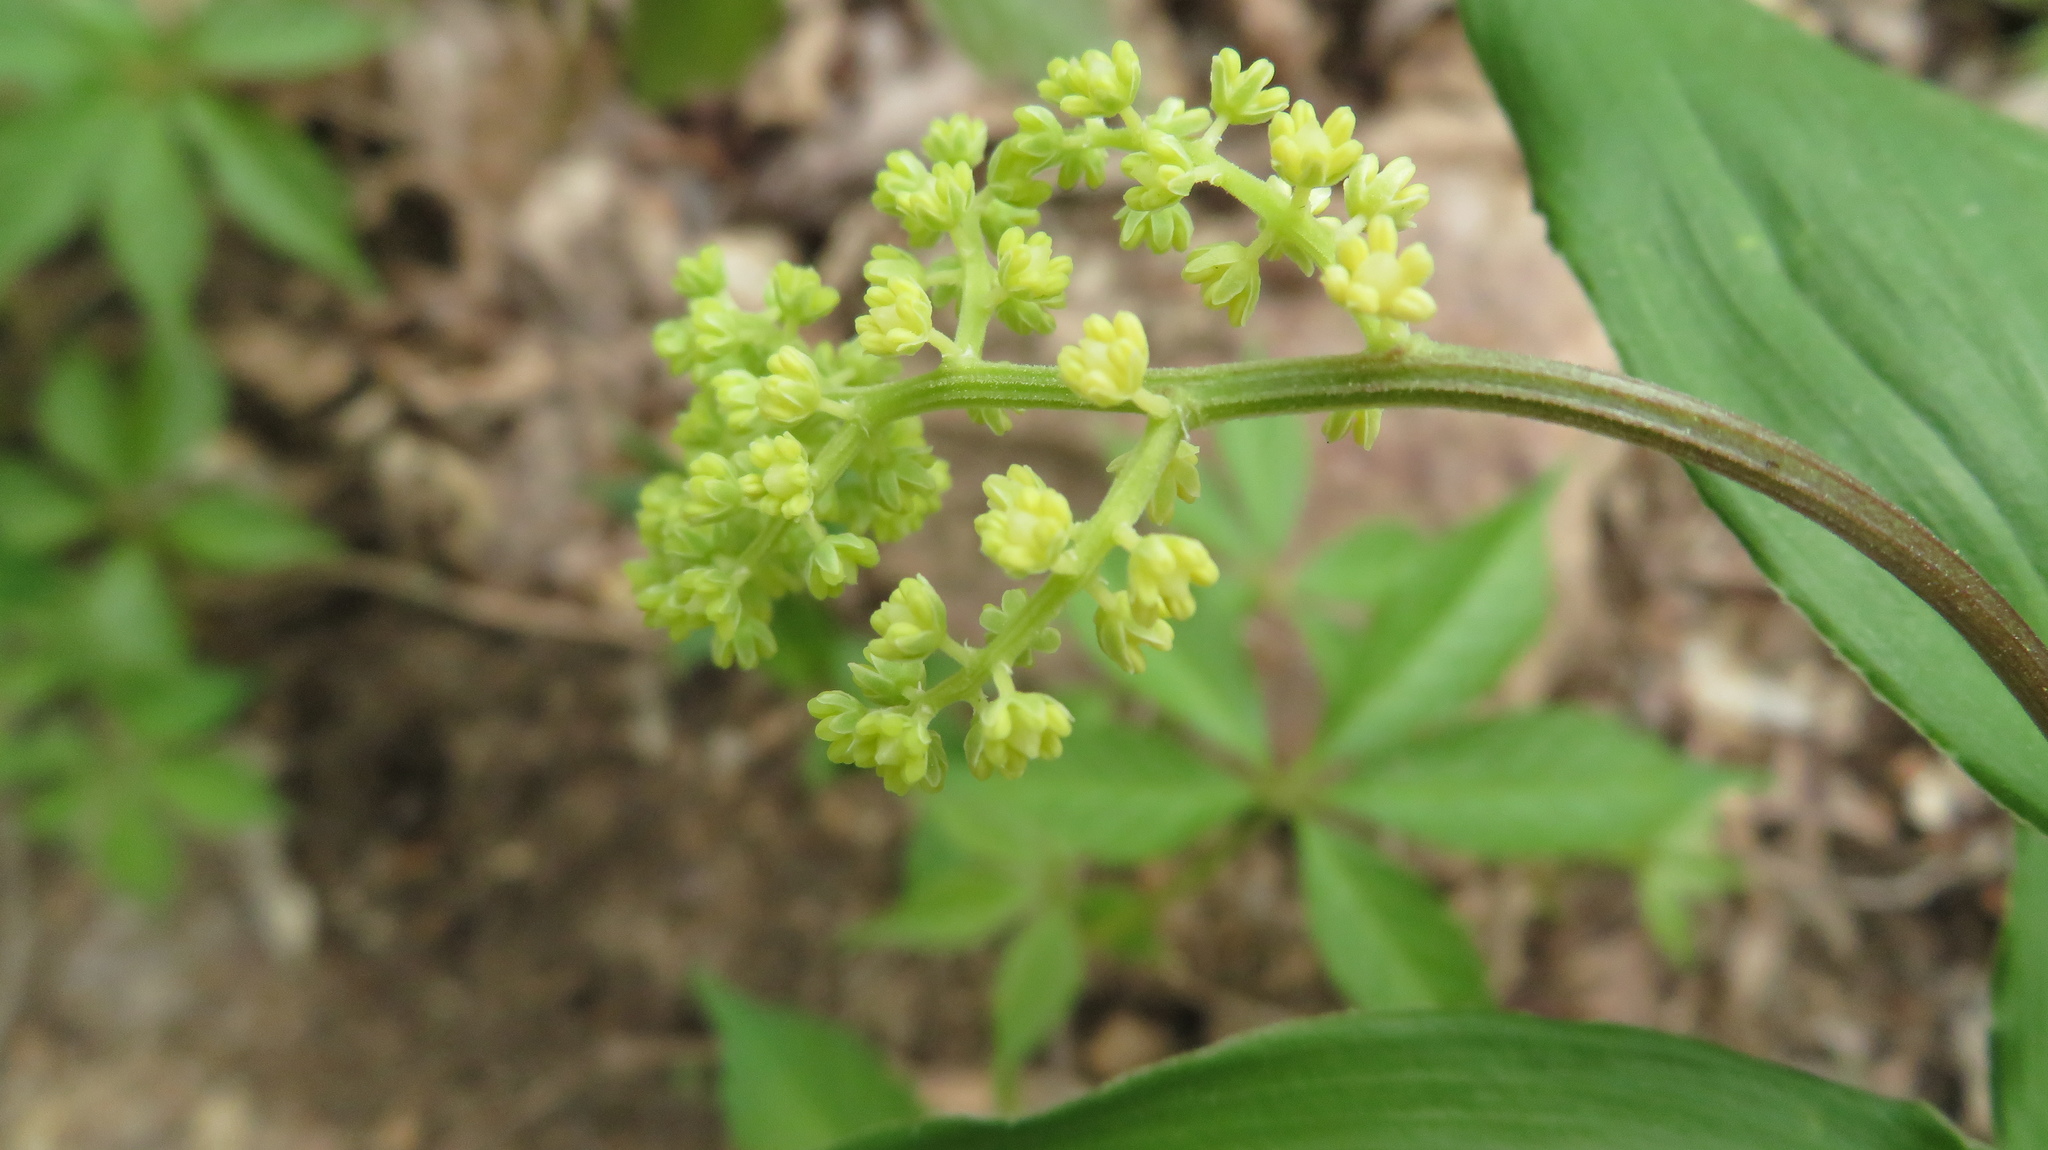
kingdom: Plantae
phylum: Tracheophyta
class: Liliopsida
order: Asparagales
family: Asparagaceae
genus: Maianthemum
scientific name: Maianthemum racemosum
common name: False spikenard
